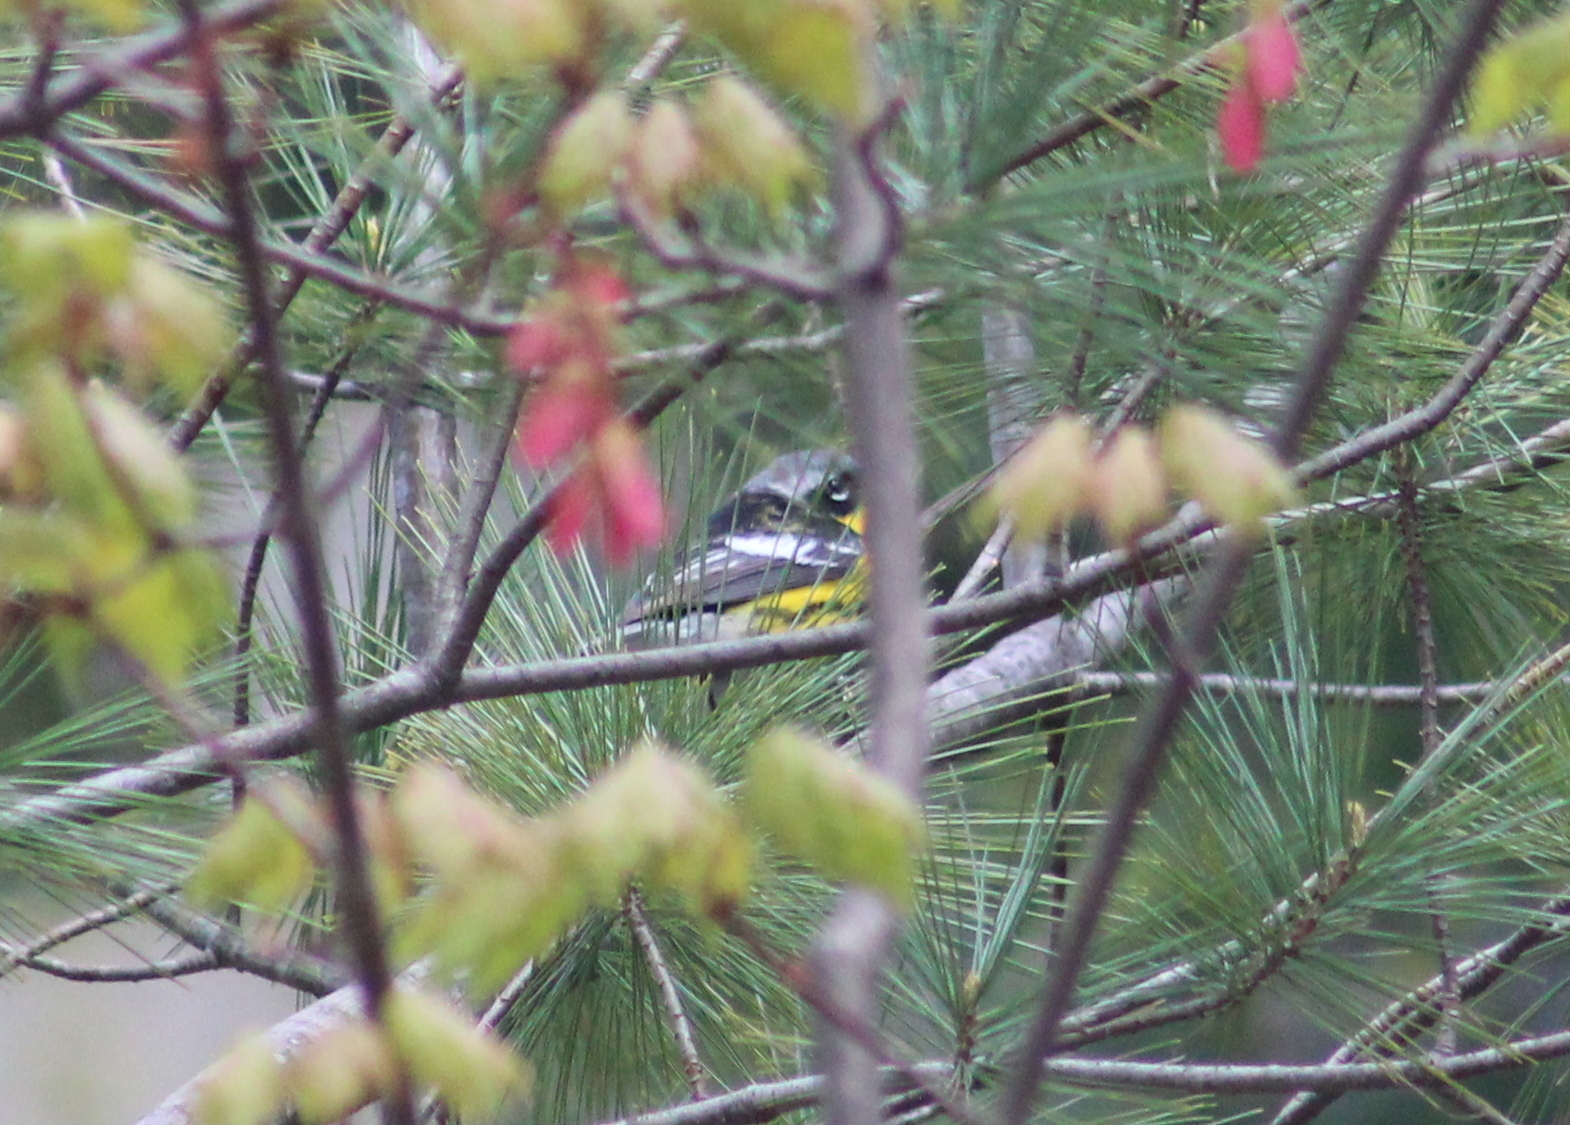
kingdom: Animalia
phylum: Chordata
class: Aves
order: Passeriformes
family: Parulidae
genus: Setophaga
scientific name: Setophaga magnolia
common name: Magnolia warbler
